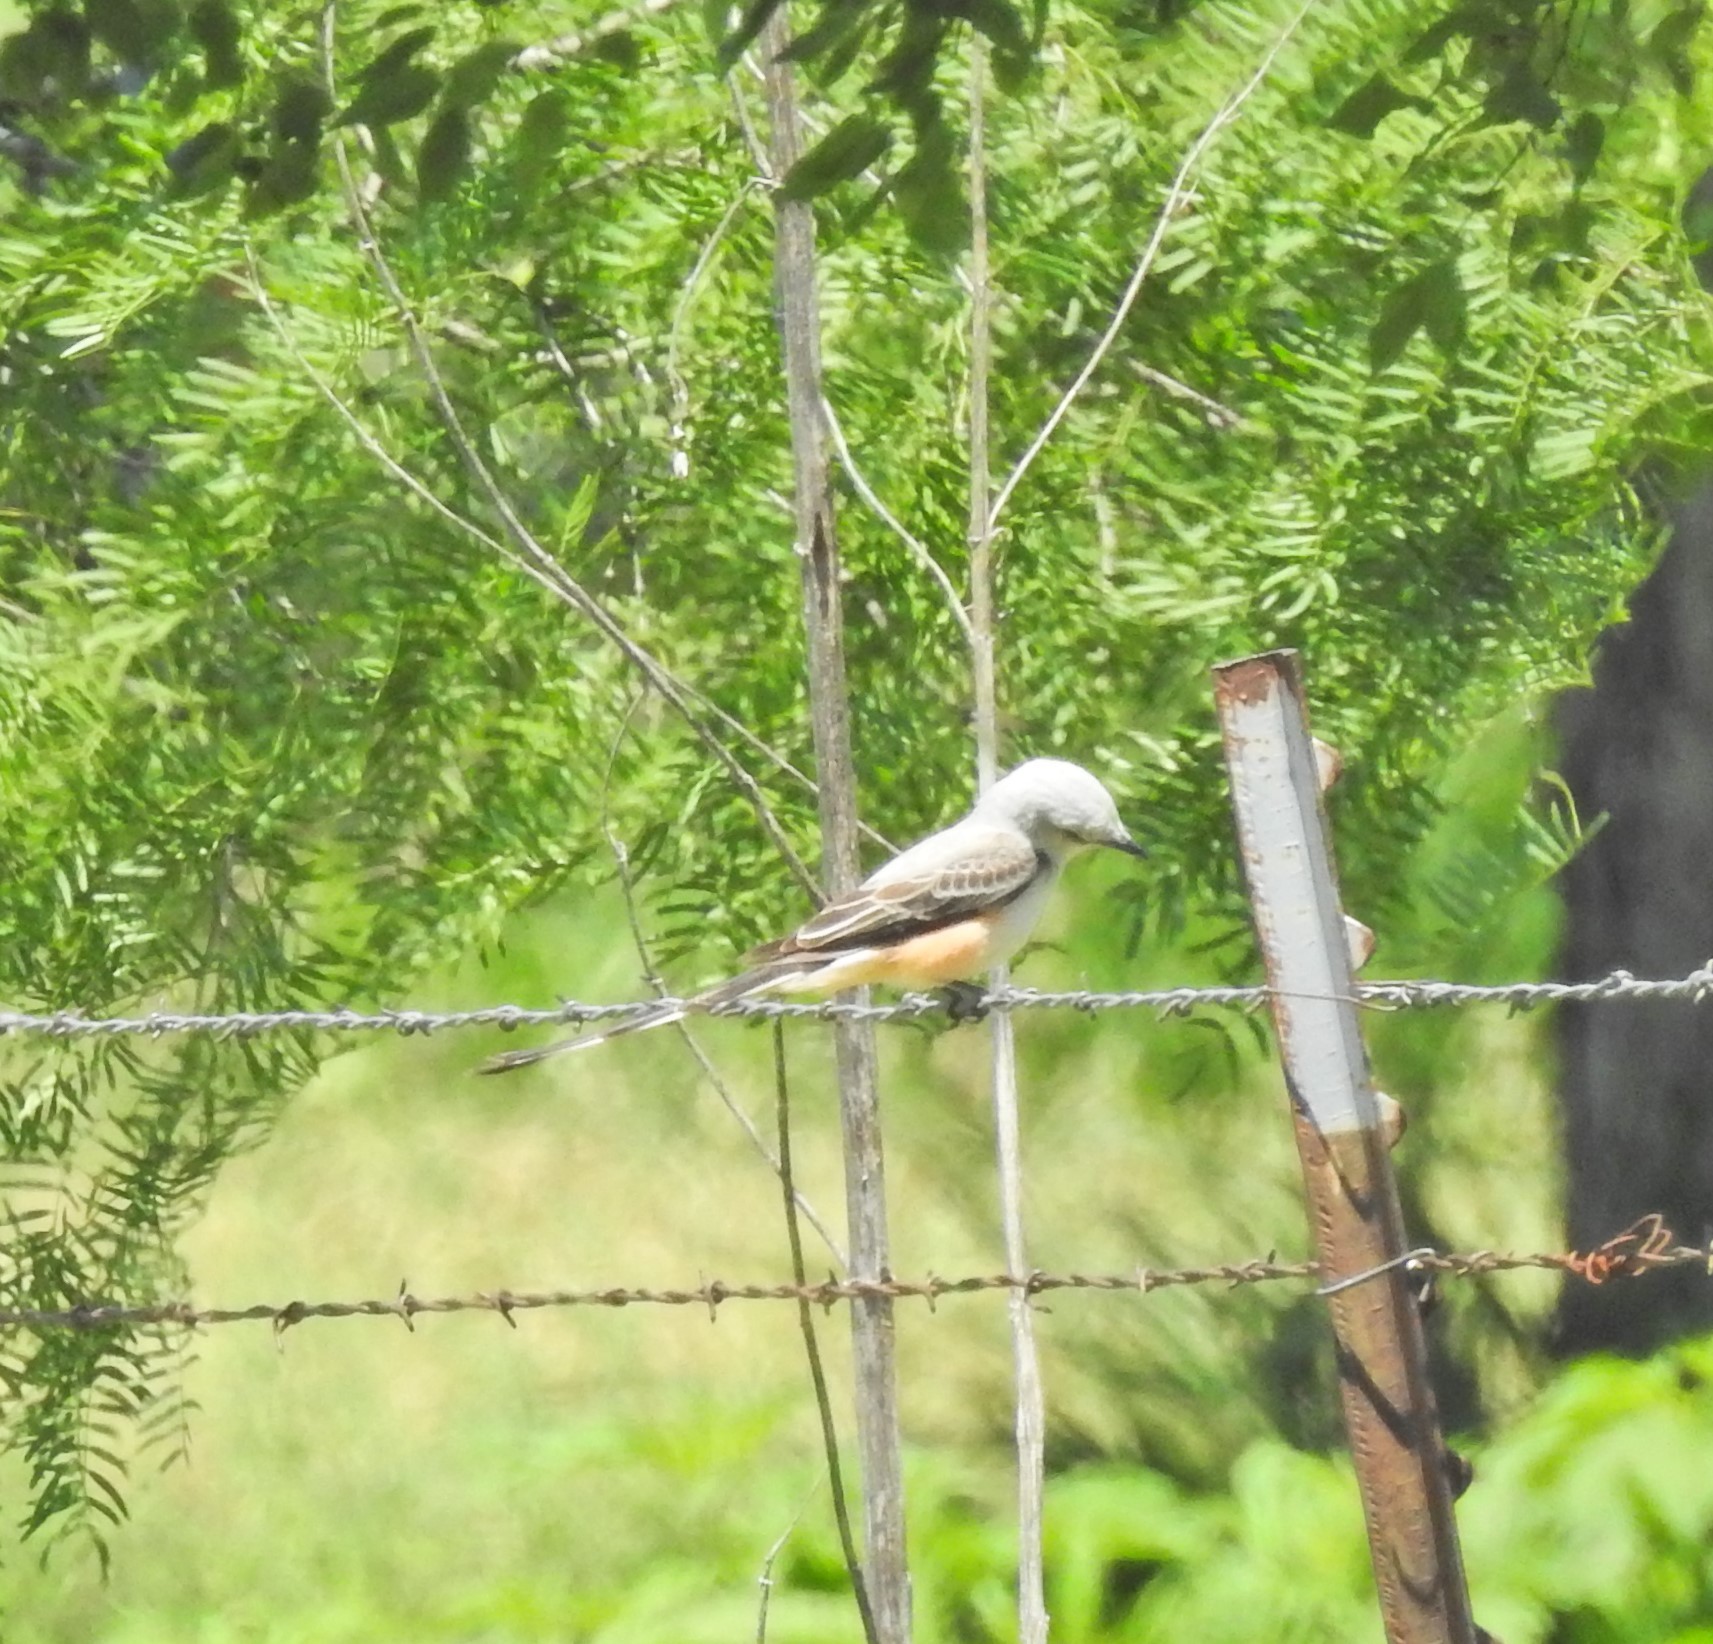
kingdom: Animalia
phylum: Chordata
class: Aves
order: Passeriformes
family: Tyrannidae
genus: Tyrannus
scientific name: Tyrannus forficatus
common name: Scissor-tailed flycatcher
